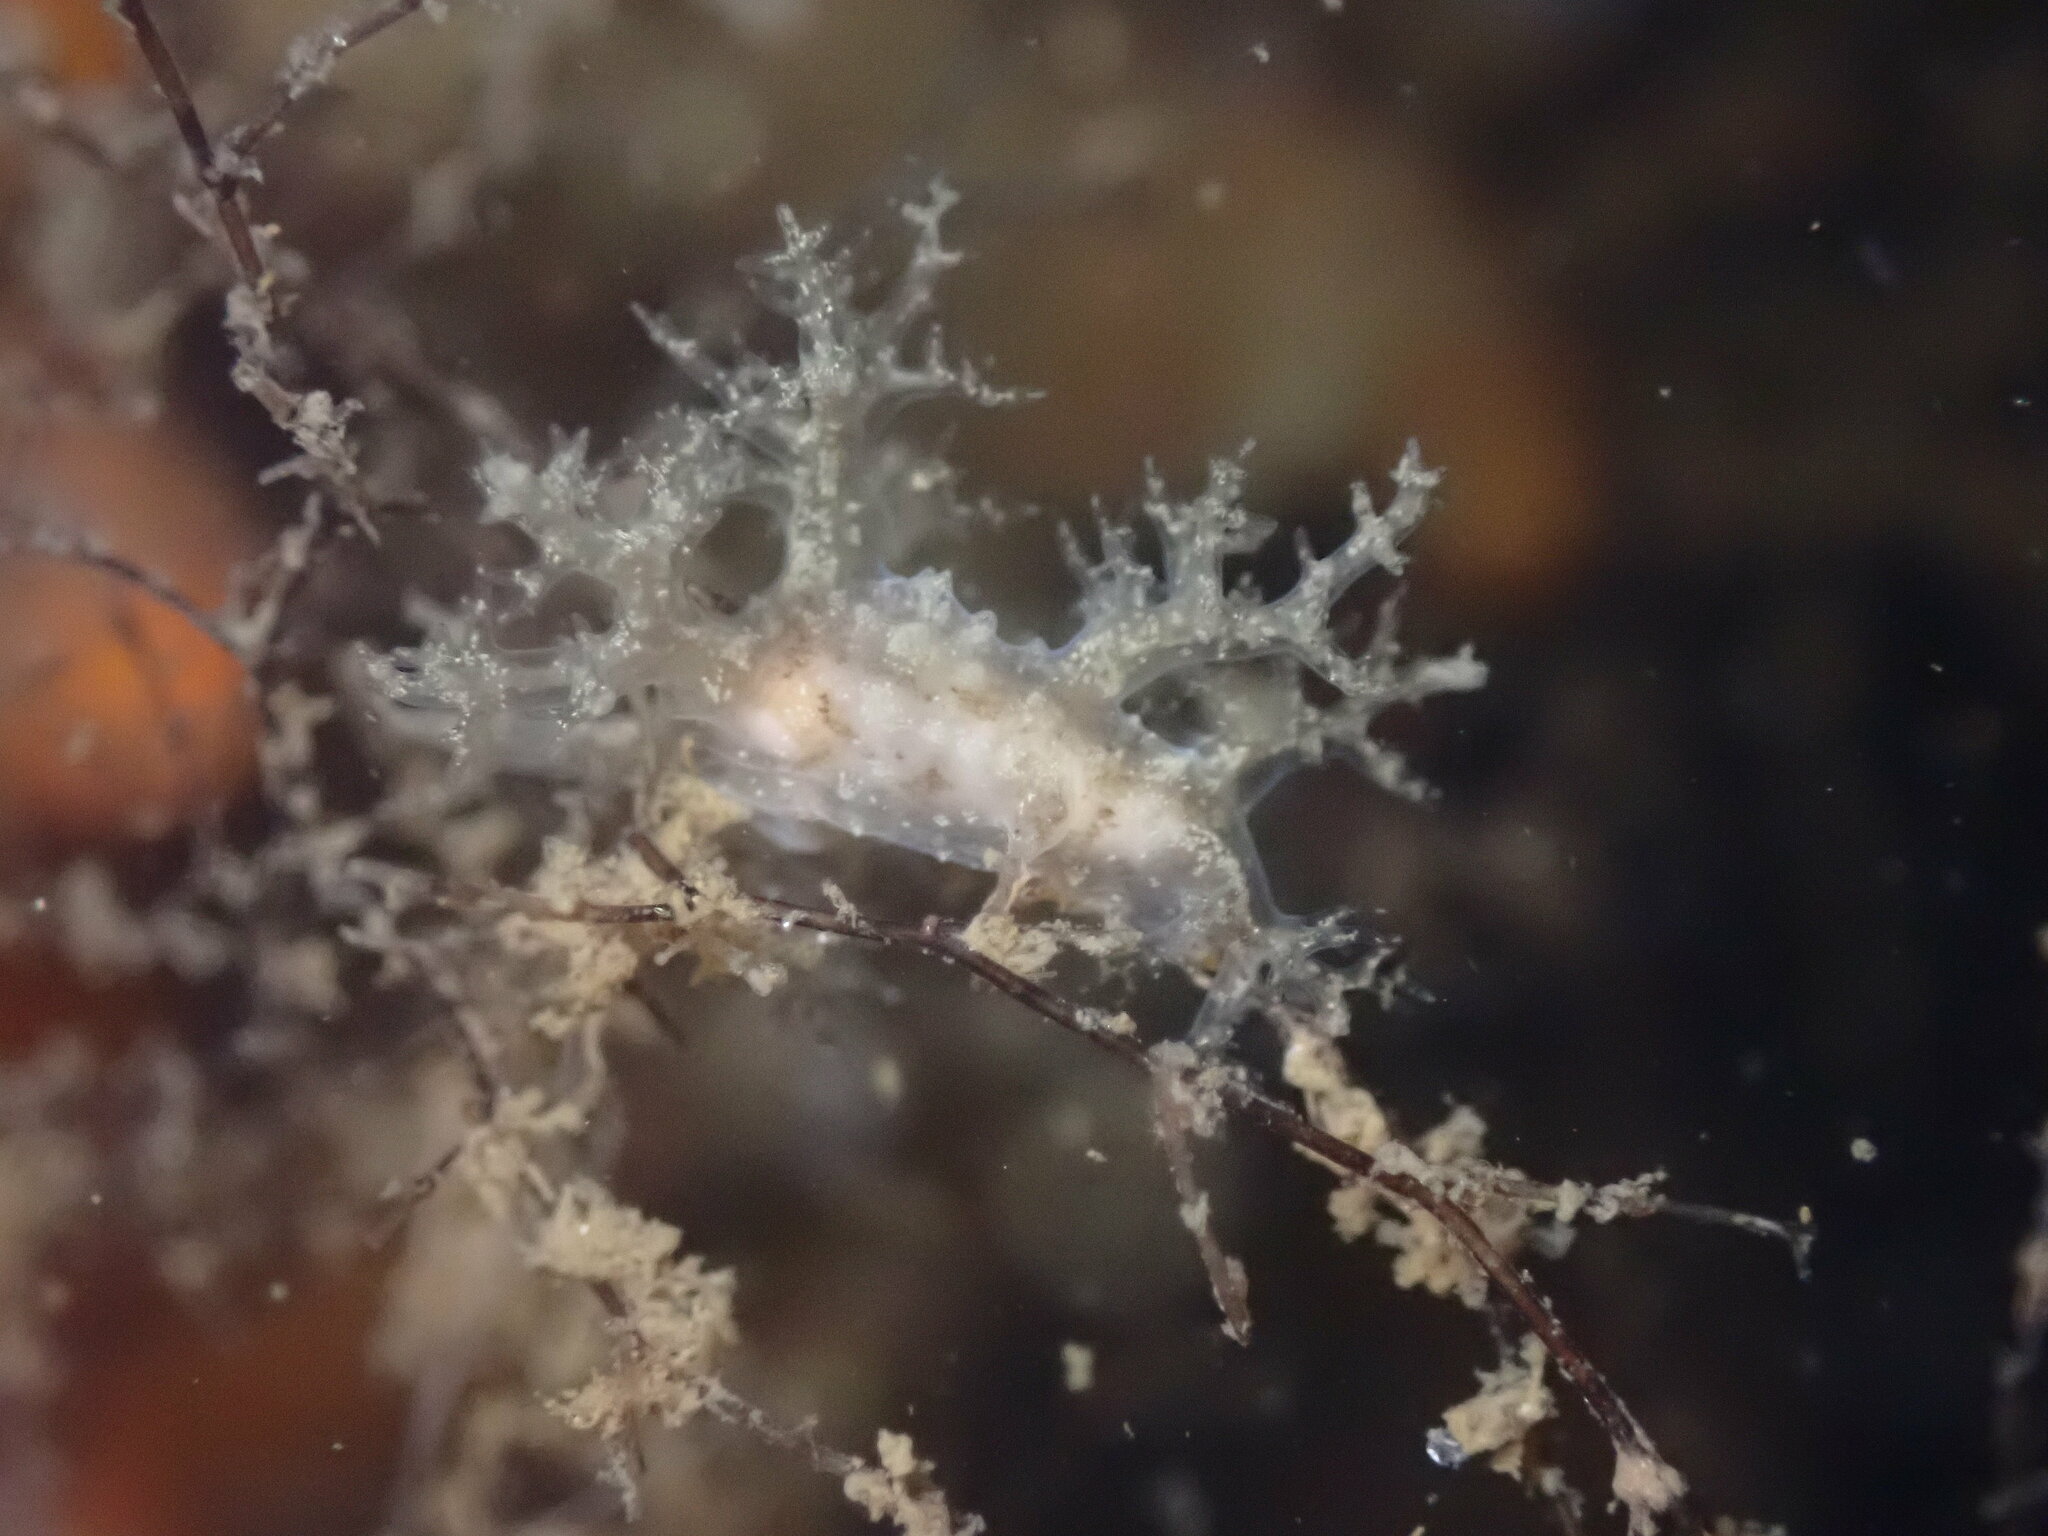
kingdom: Animalia
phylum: Mollusca
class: Gastropoda
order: Nudibranchia
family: Dendronotidae
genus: Dendronotus
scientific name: Dendronotus venustus
